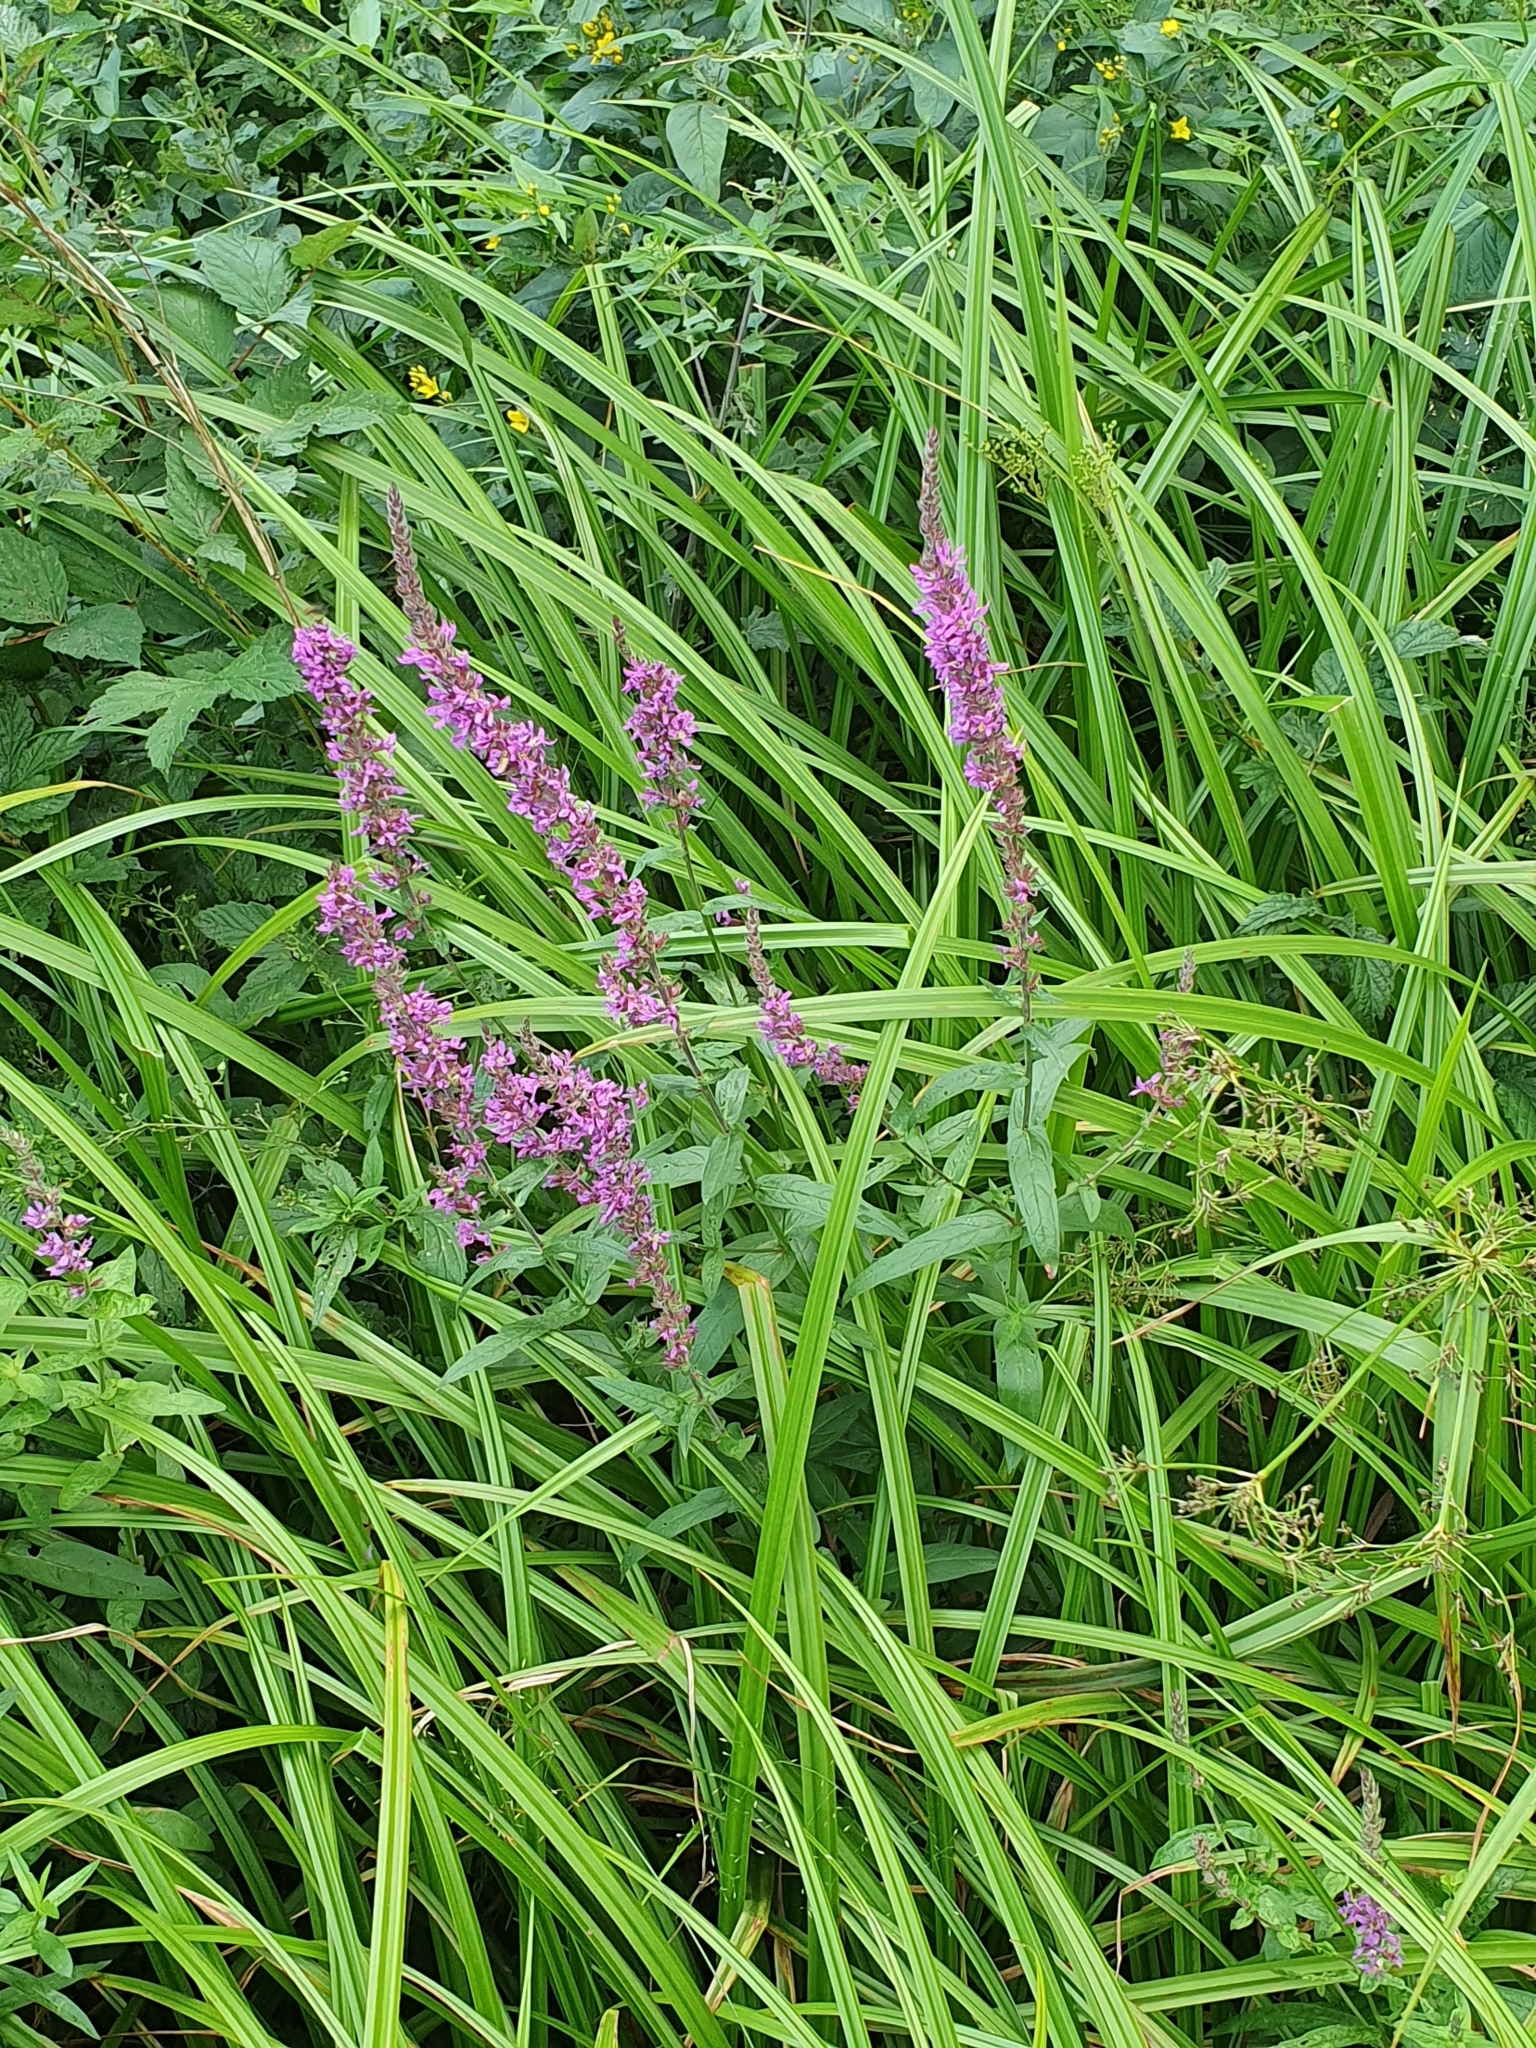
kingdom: Plantae
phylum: Tracheophyta
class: Magnoliopsida
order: Myrtales
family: Lythraceae
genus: Lythrum
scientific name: Lythrum salicaria
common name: Purple loosestrife
